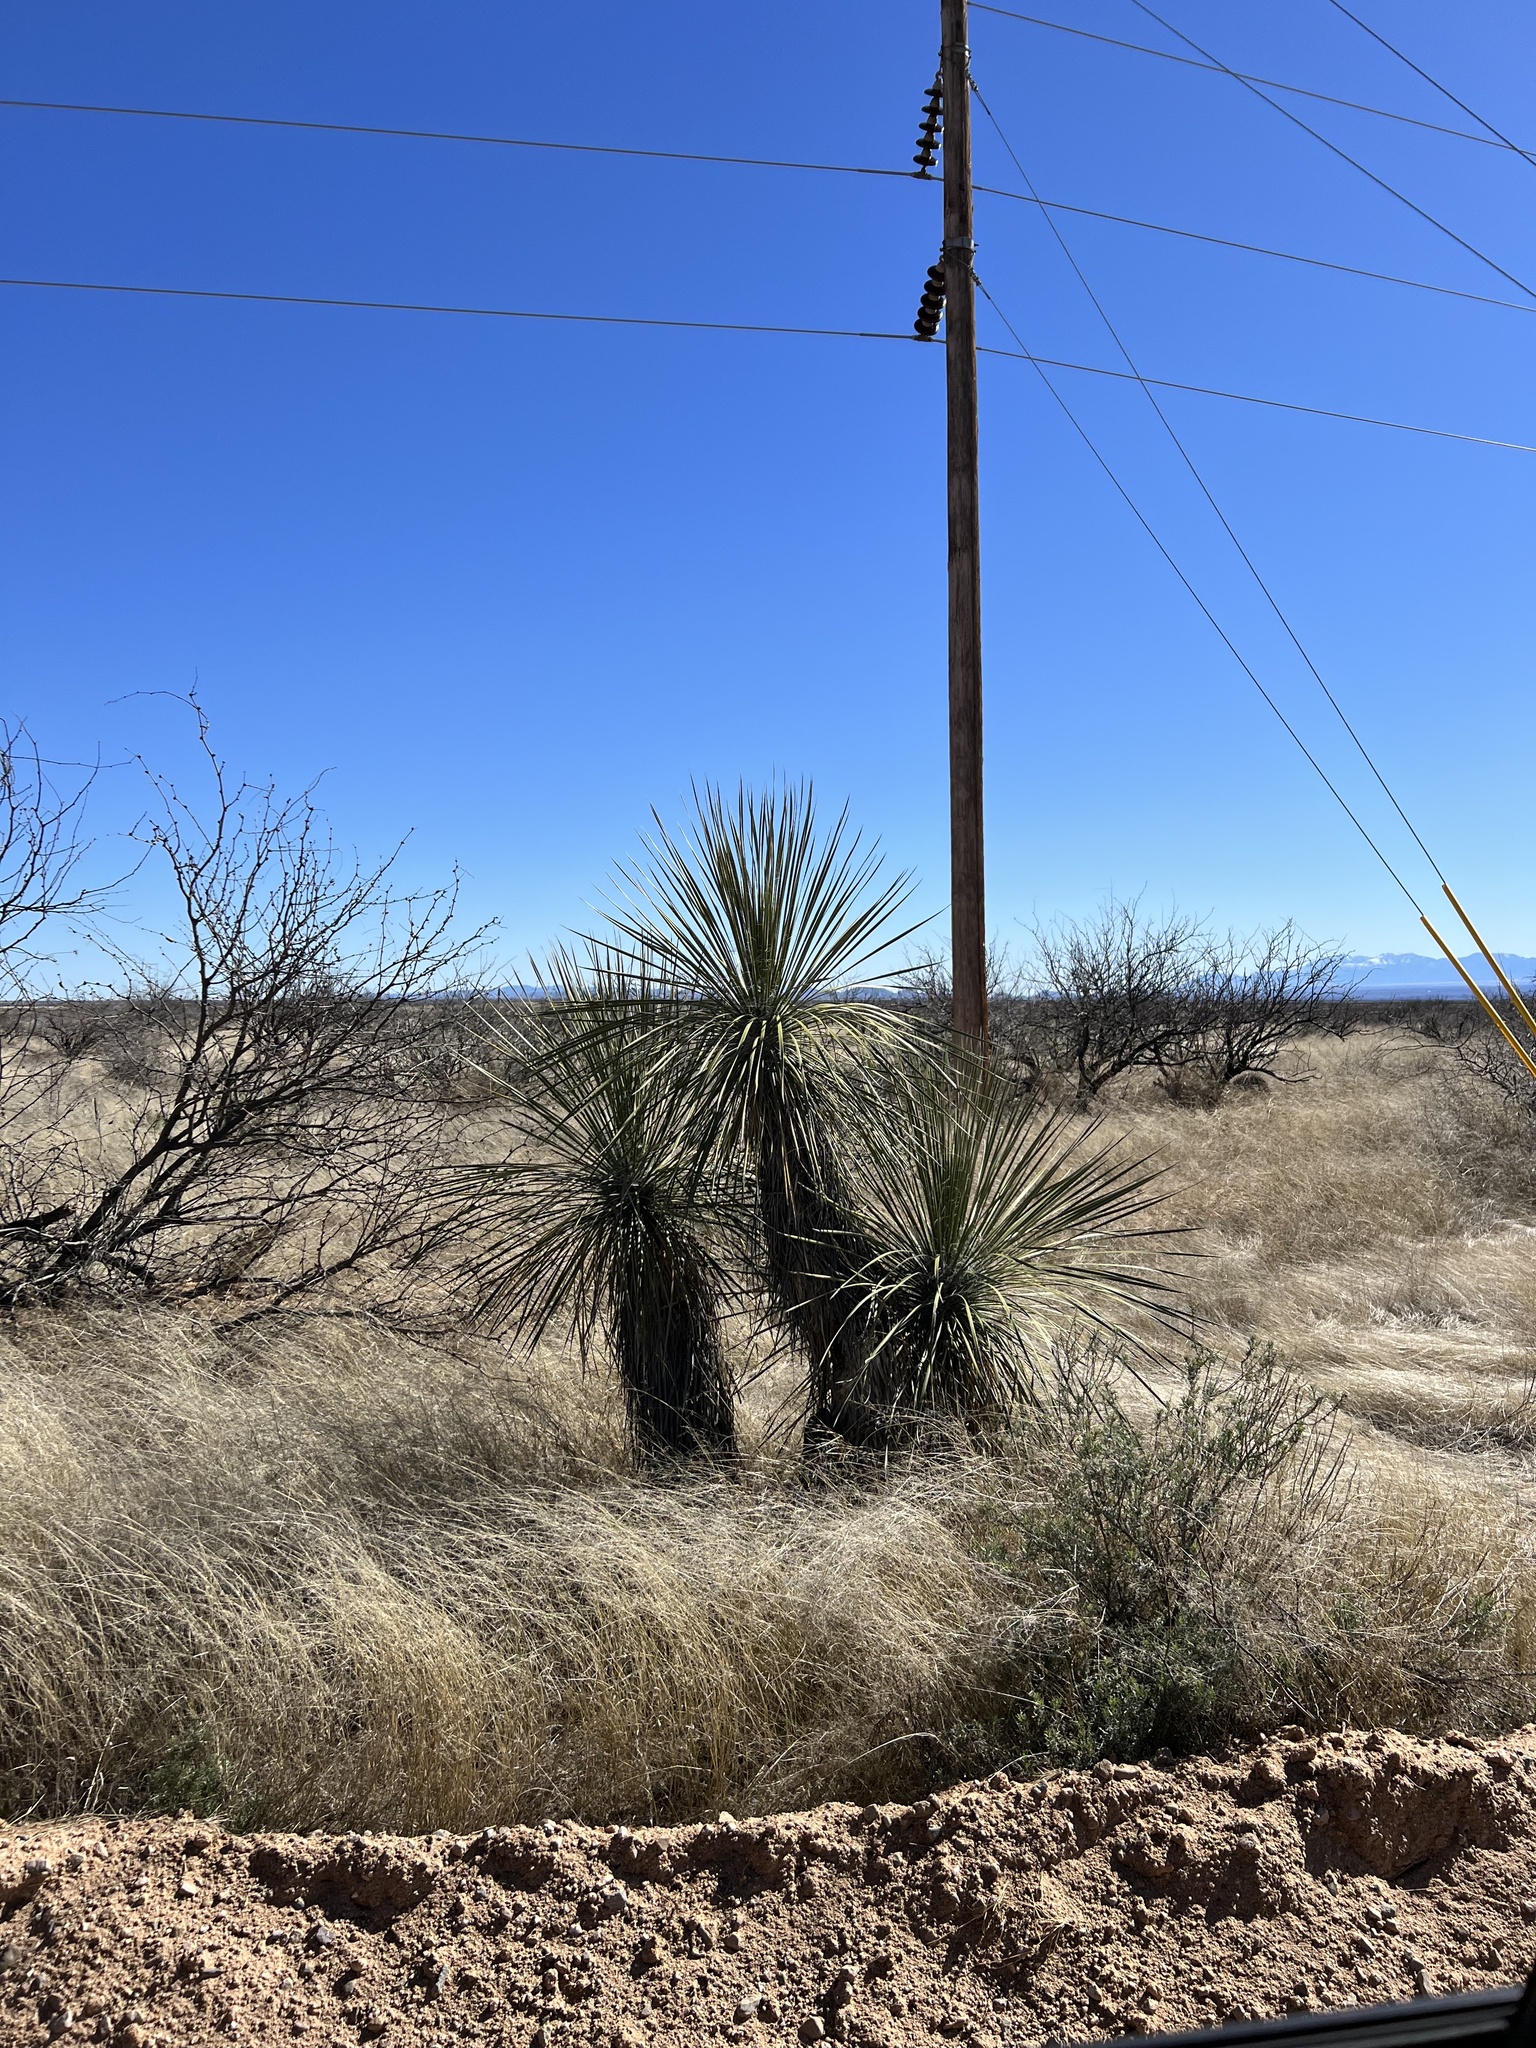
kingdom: Plantae
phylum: Tracheophyta
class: Liliopsida
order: Asparagales
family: Asparagaceae
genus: Yucca
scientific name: Yucca elata
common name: Palmella
